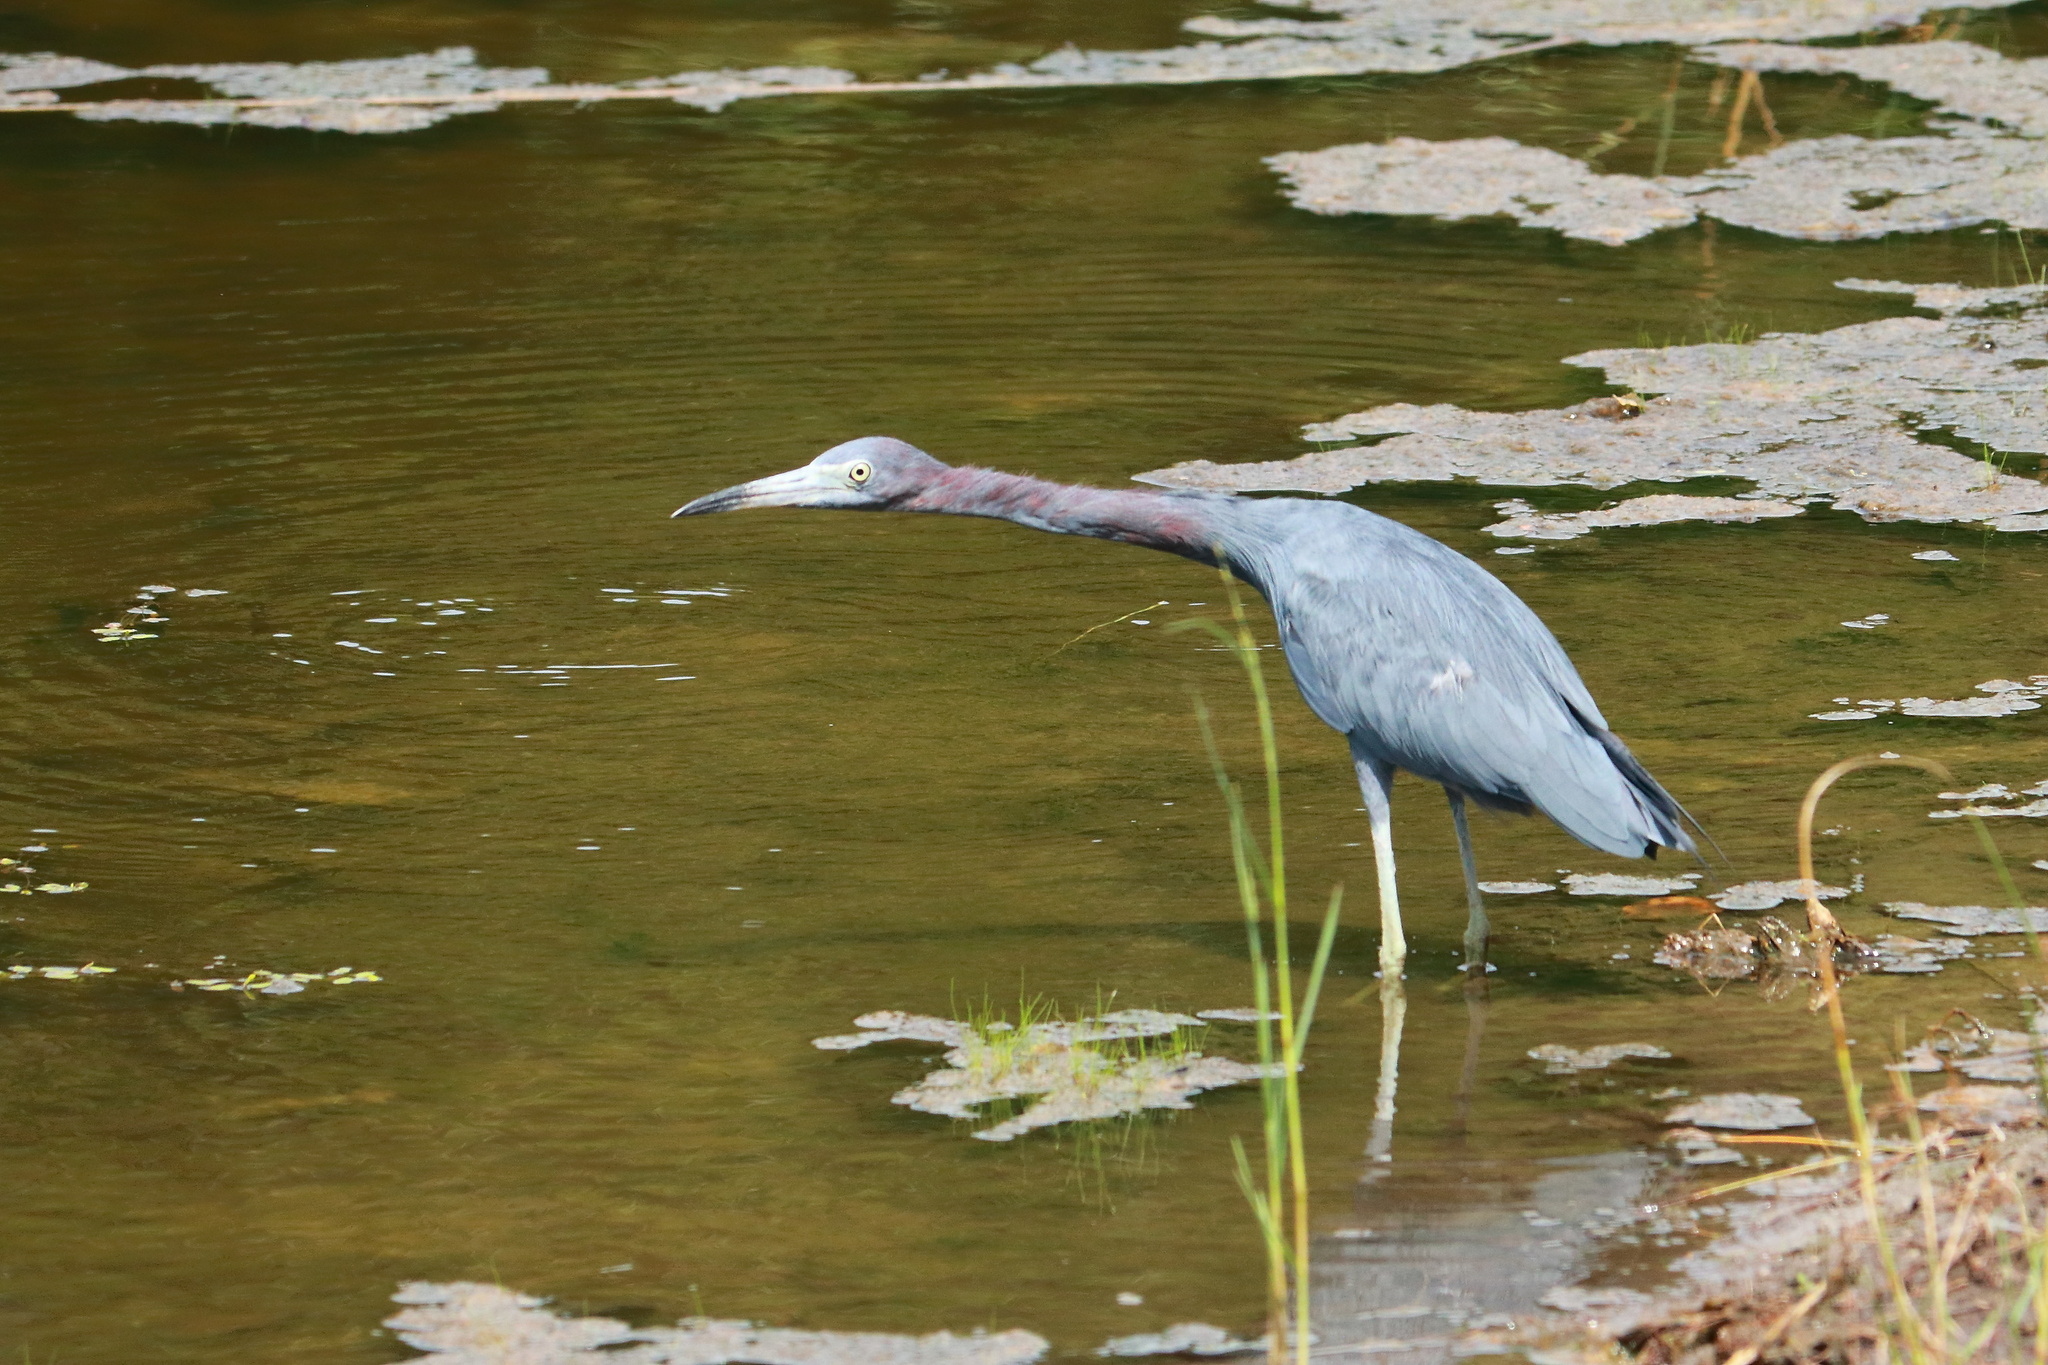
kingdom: Animalia
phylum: Chordata
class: Aves
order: Pelecaniformes
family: Ardeidae
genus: Egretta
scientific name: Egretta caerulea
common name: Little blue heron
